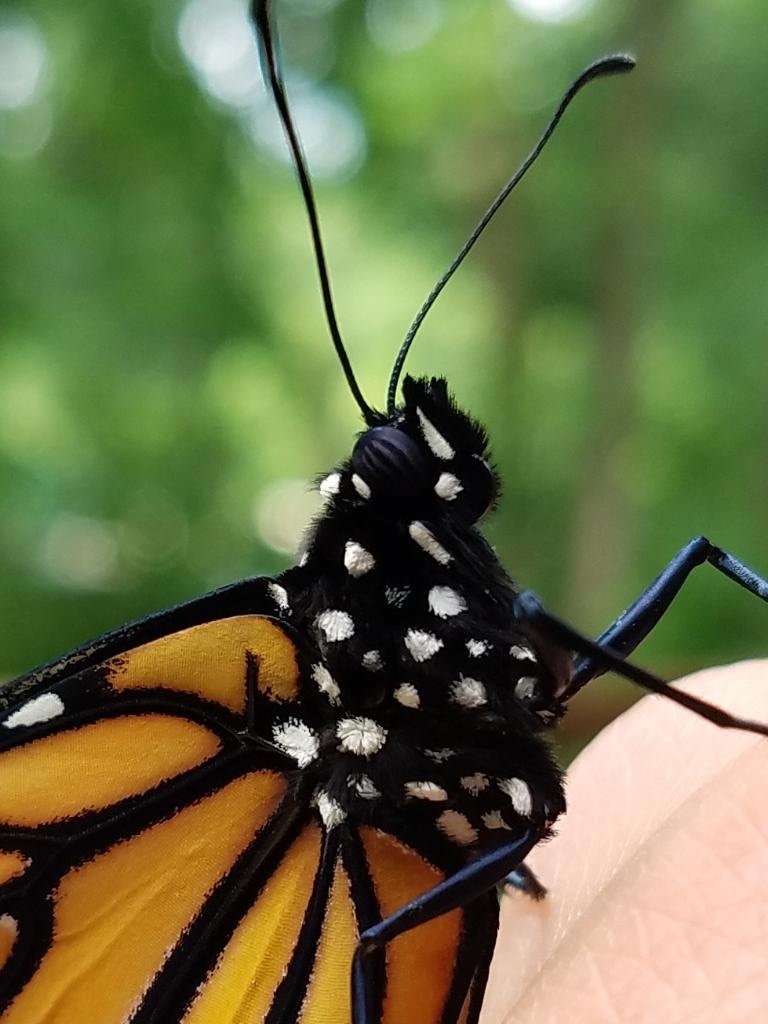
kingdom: Animalia
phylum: Arthropoda
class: Insecta
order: Lepidoptera
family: Nymphalidae
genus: Danaus
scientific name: Danaus plexippus
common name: Monarch
